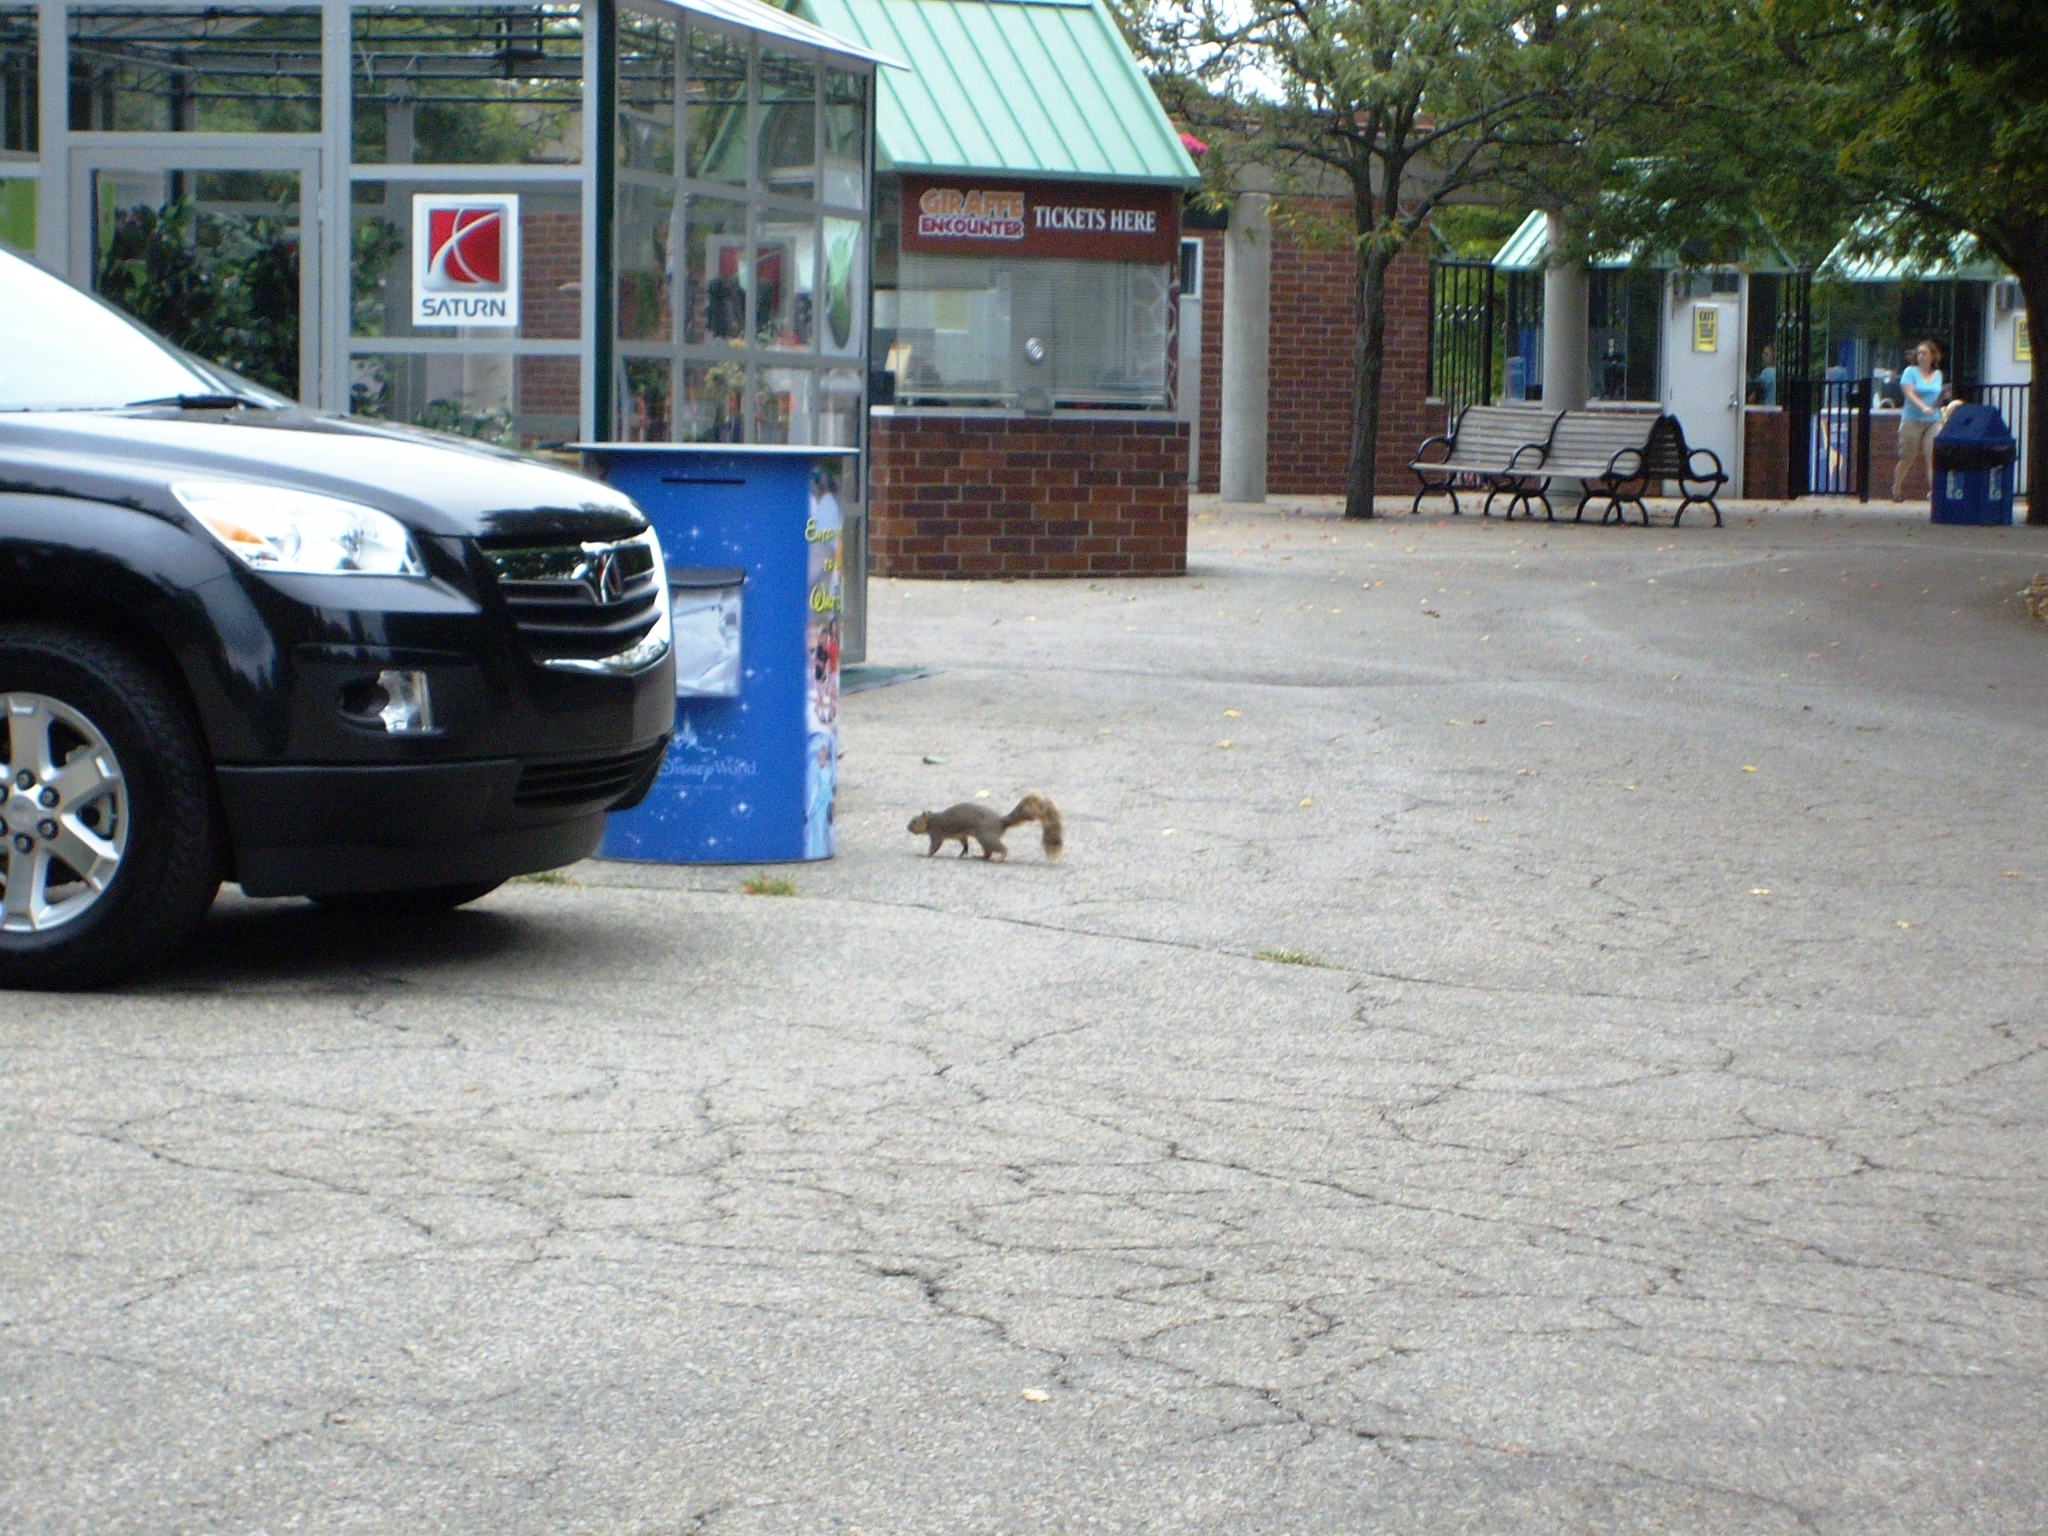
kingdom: Animalia
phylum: Chordata
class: Mammalia
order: Rodentia
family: Sciuridae
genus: Sciurus
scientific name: Sciurus niger
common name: Fox squirrel
